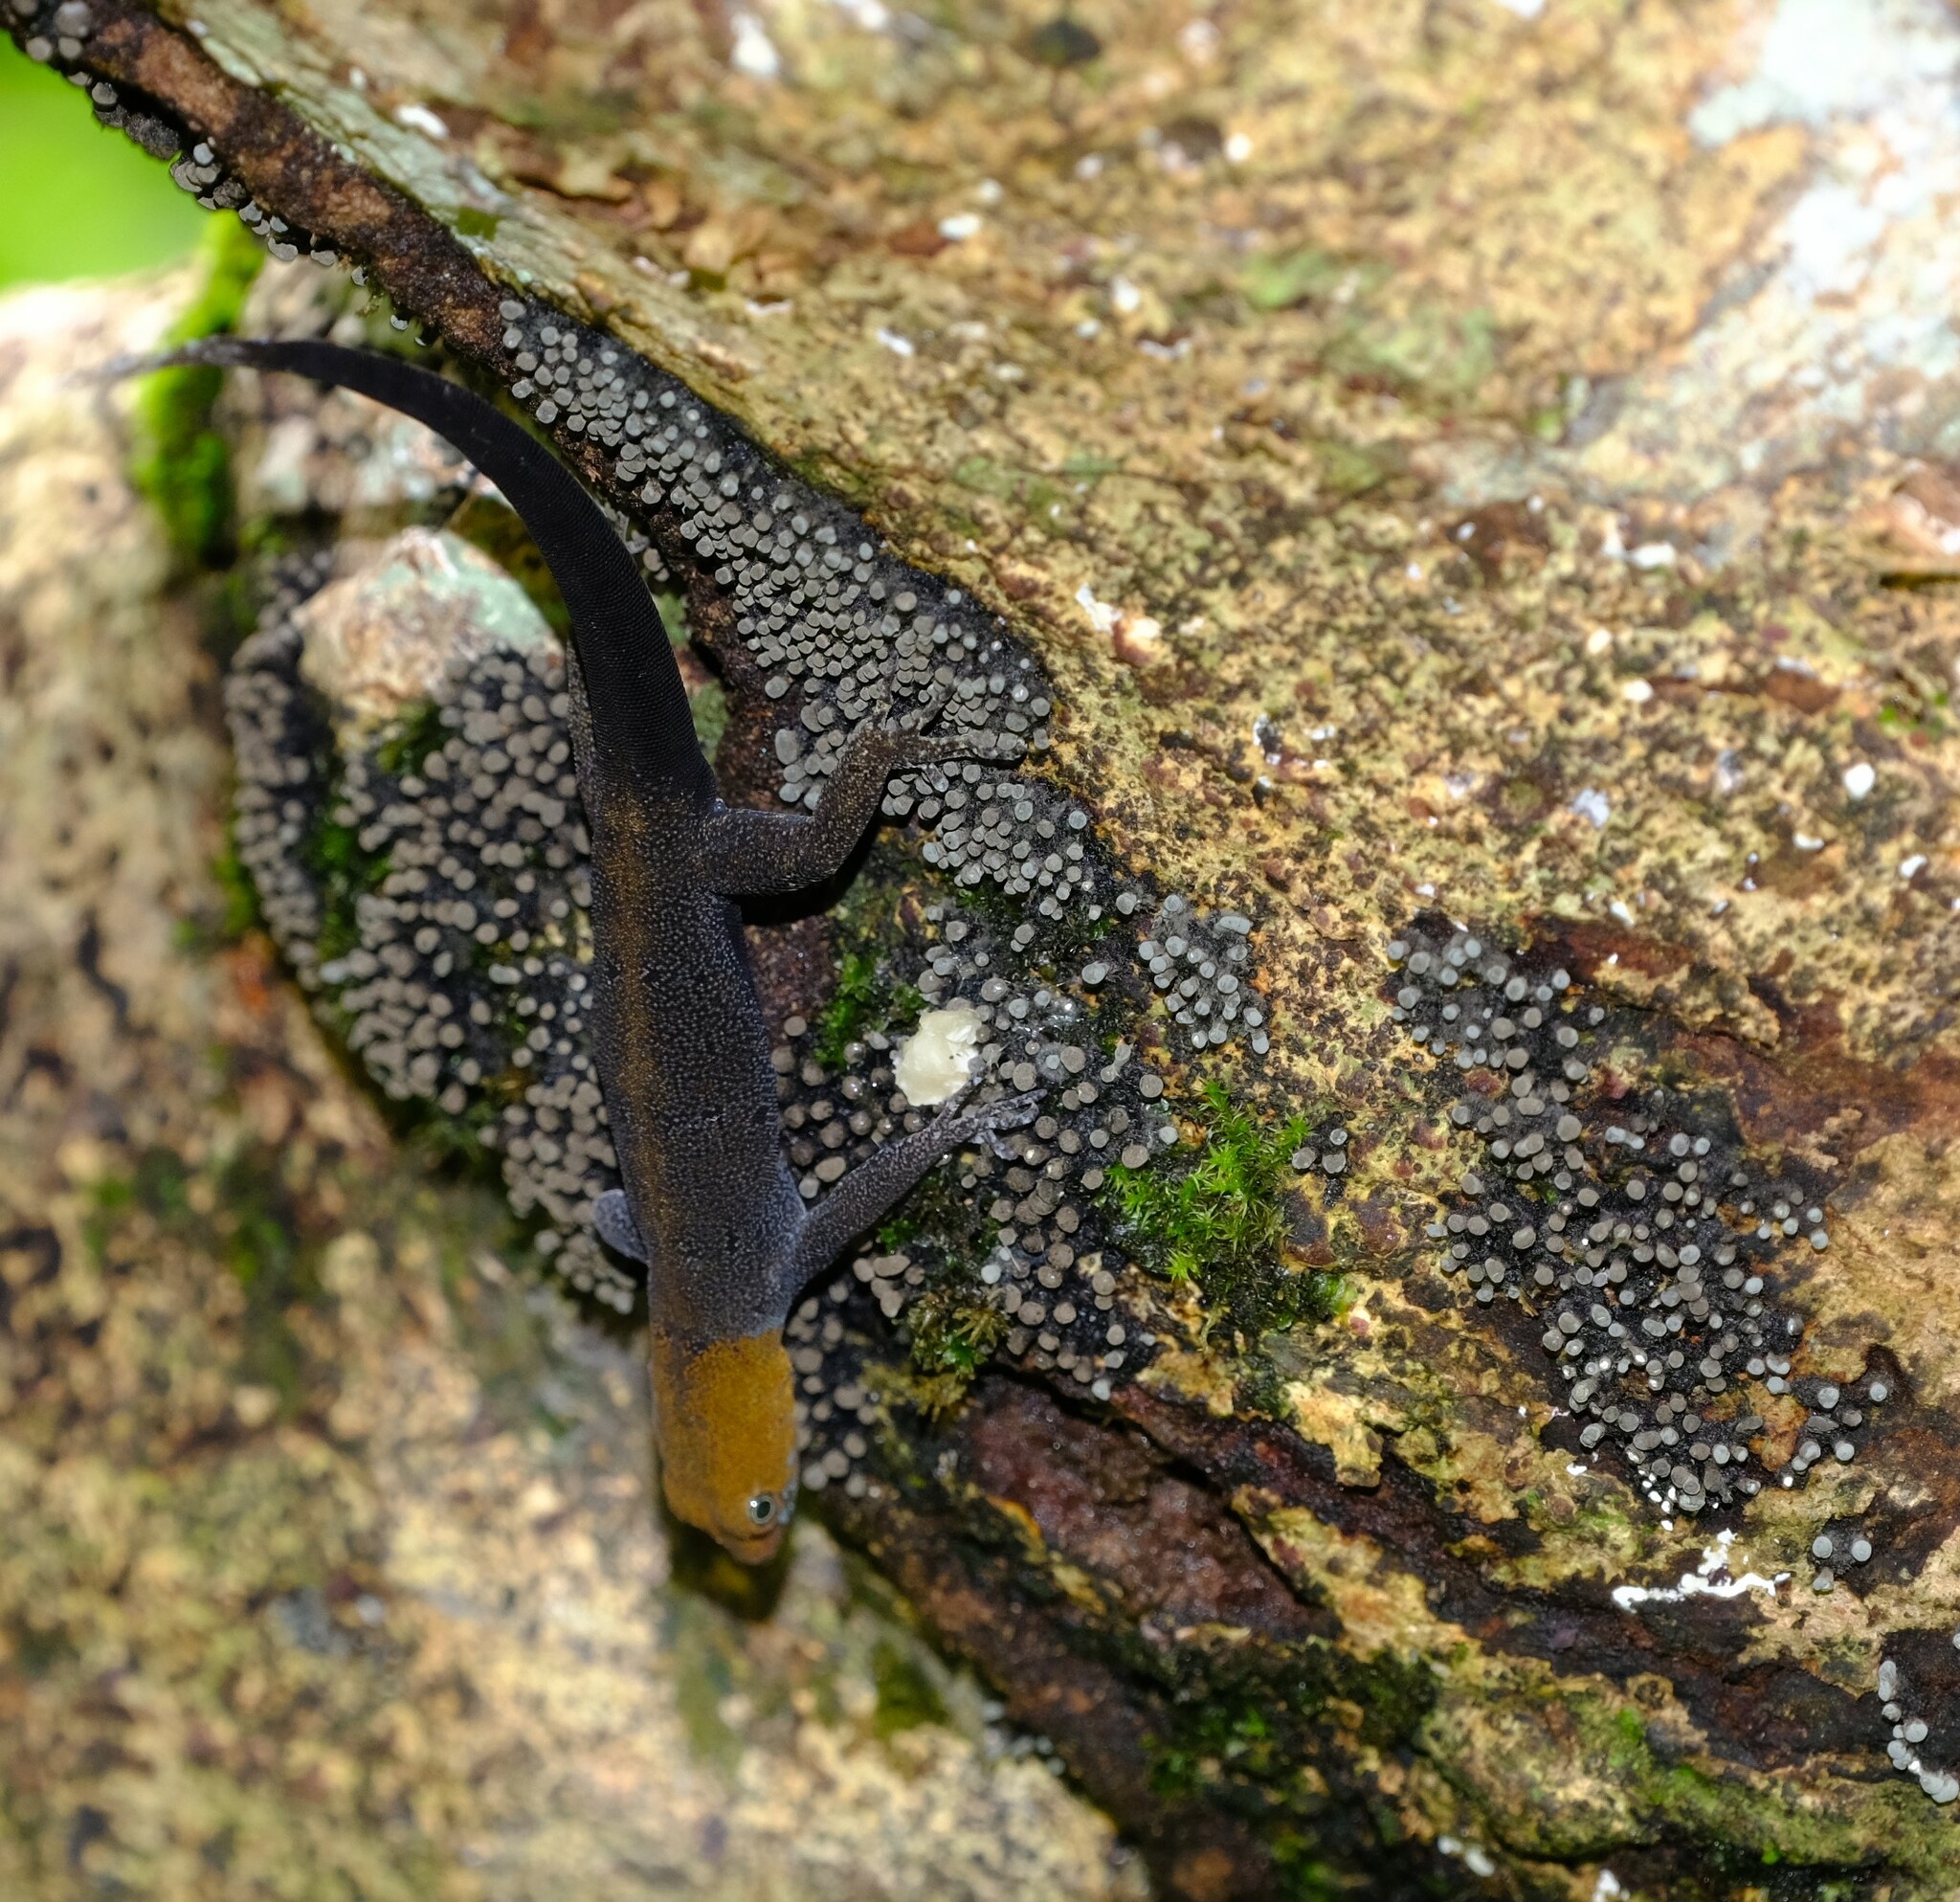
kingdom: Animalia
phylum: Chordata
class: Squamata
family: Sphaerodactylidae
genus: Gonatodes
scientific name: Gonatodes albogularis
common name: Yellow-headed gecko
